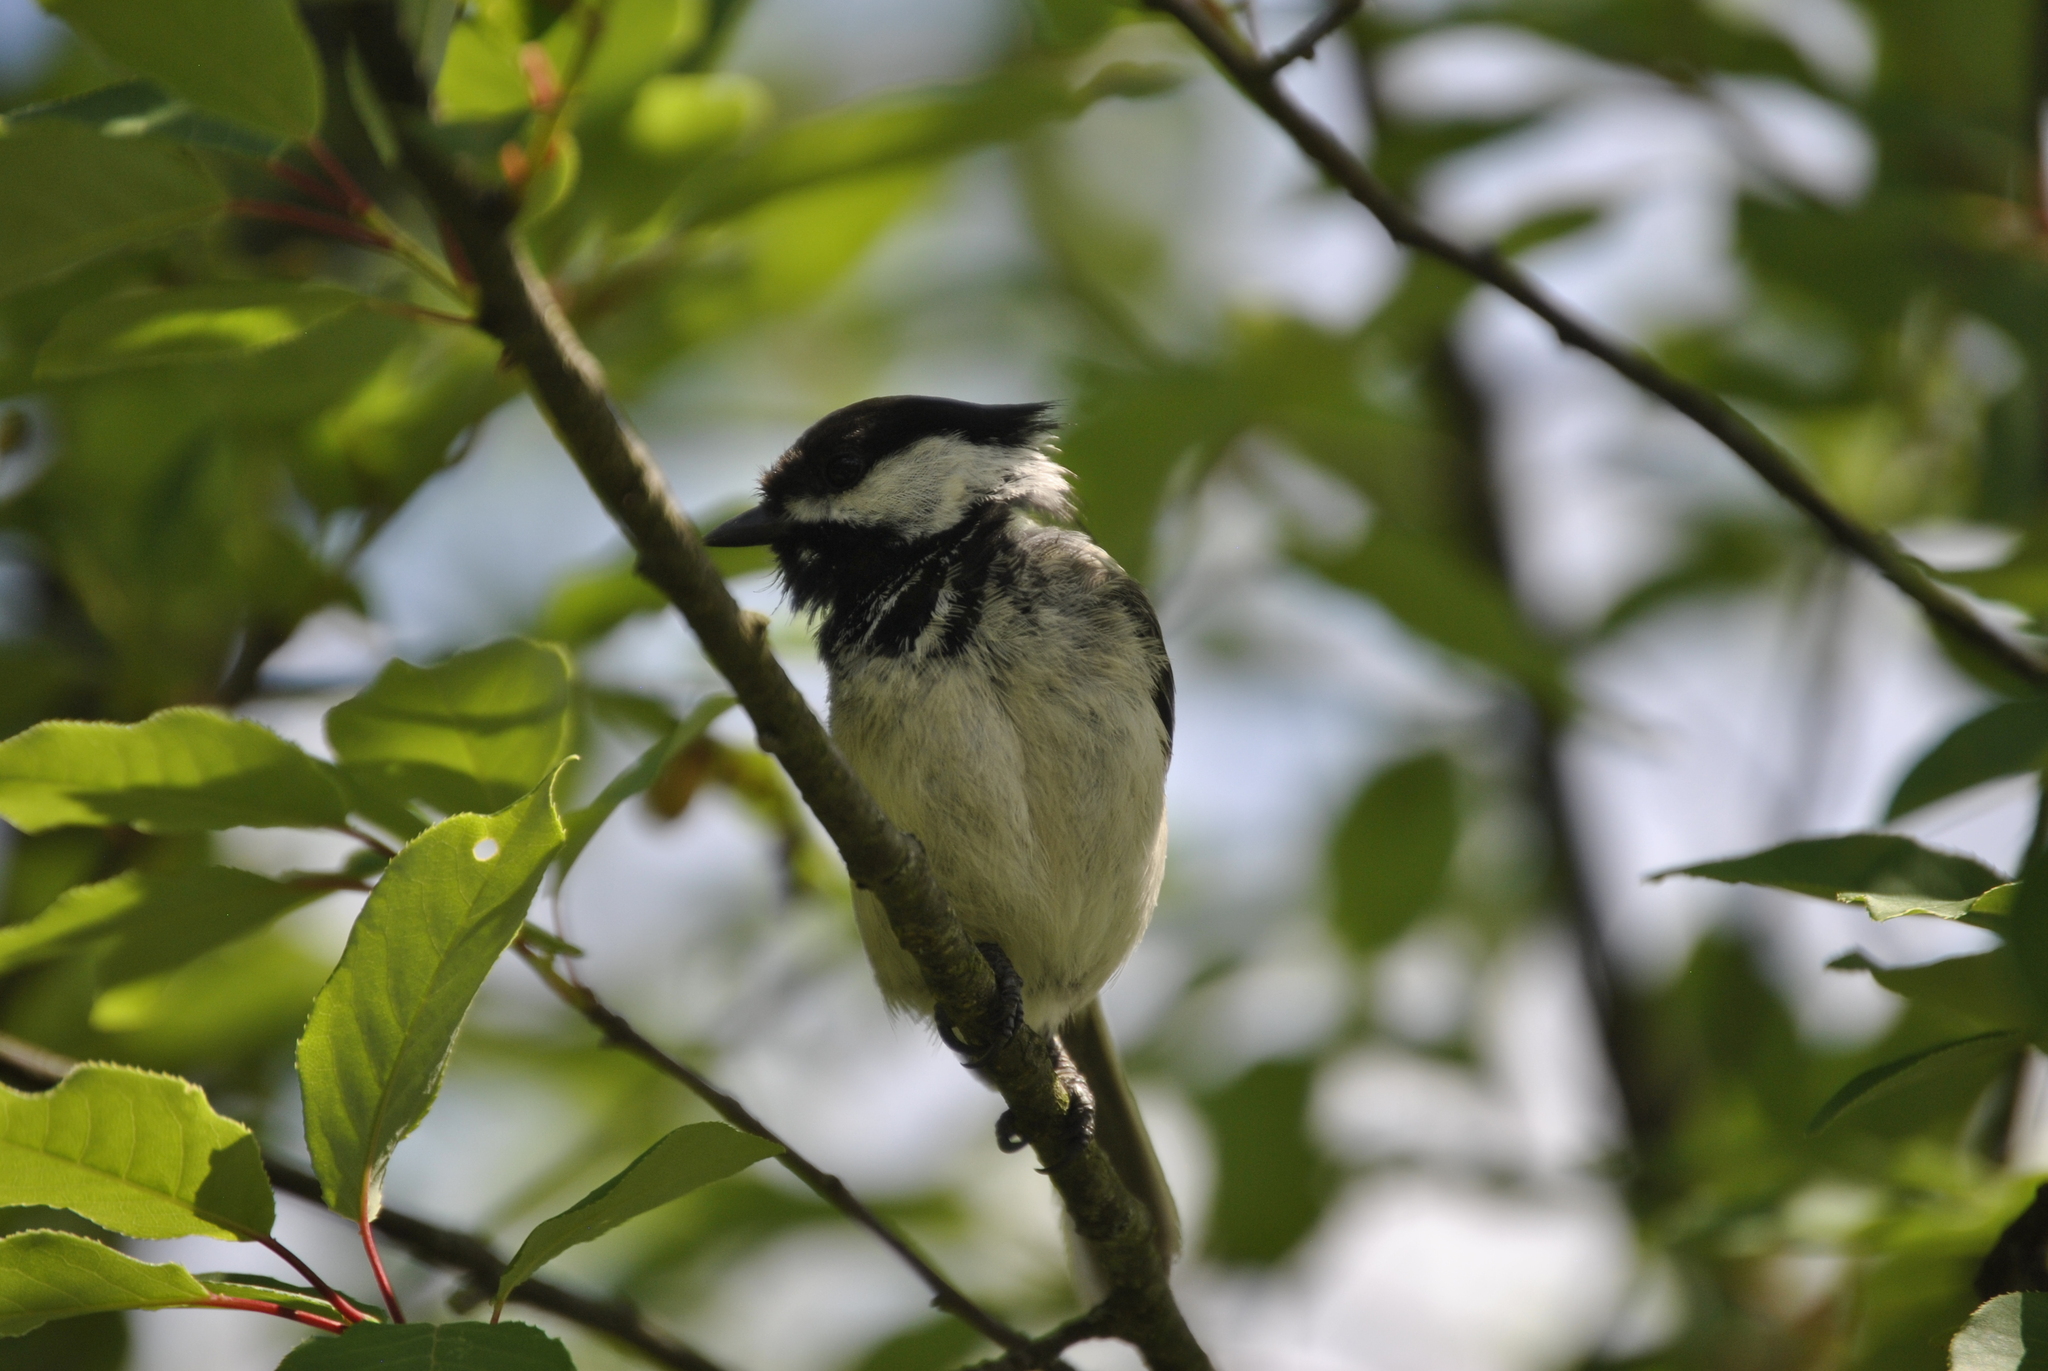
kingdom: Animalia
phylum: Chordata
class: Aves
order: Passeriformes
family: Paridae
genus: Poecile
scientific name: Poecile atricapillus
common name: Black-capped chickadee
